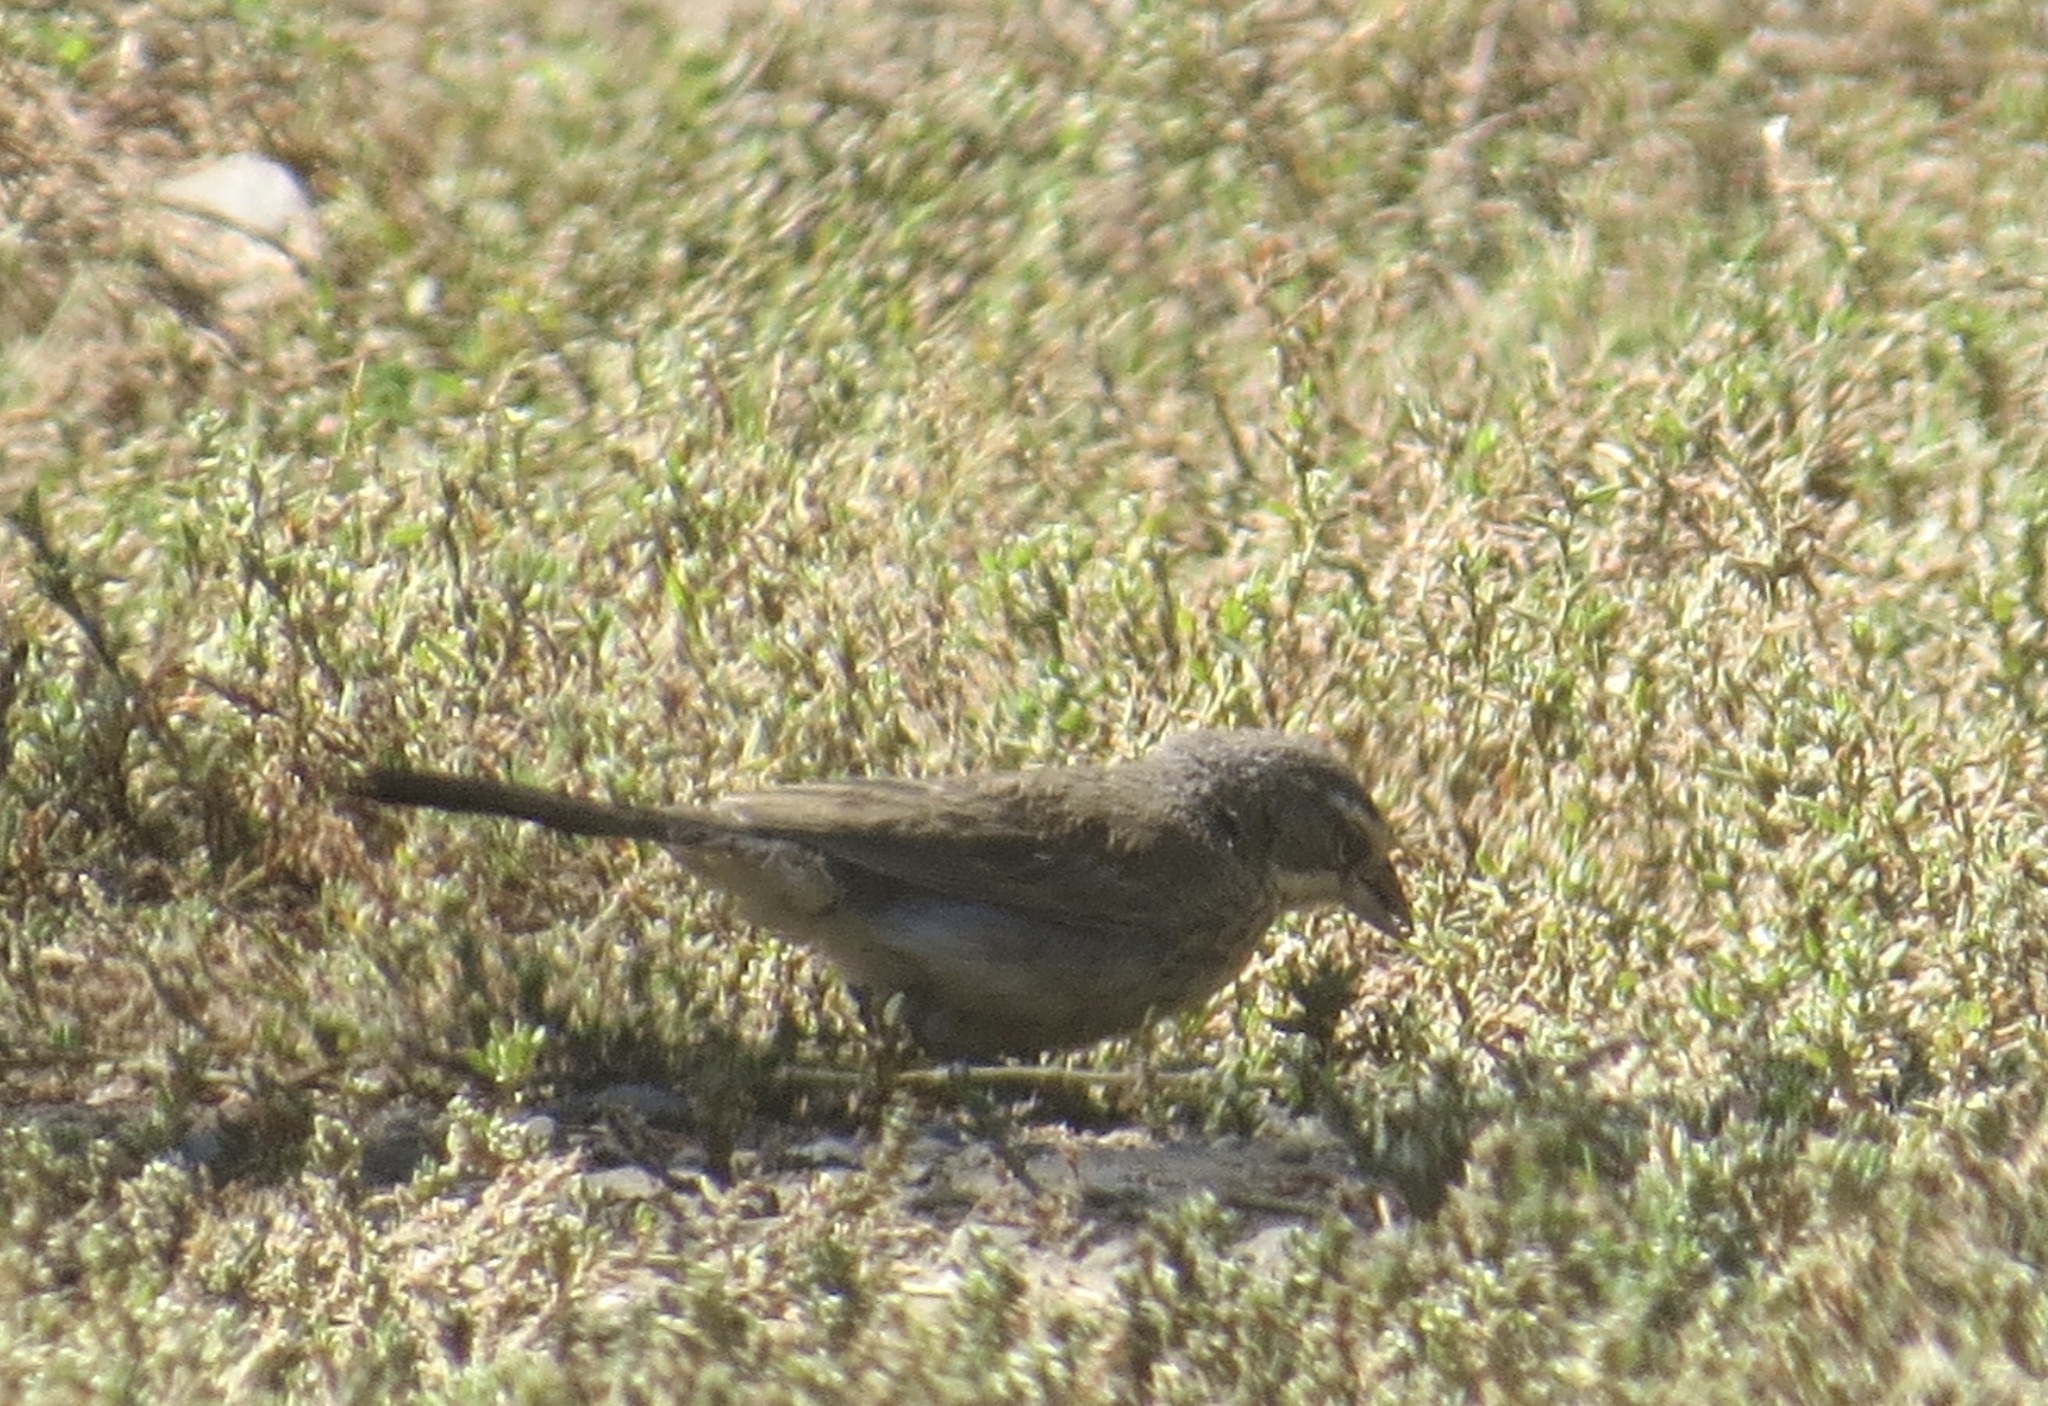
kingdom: Animalia
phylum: Chordata
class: Aves
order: Passeriformes
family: Passerellidae
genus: Amphispiza
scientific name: Amphispiza bilineata
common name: Black-throated sparrow
